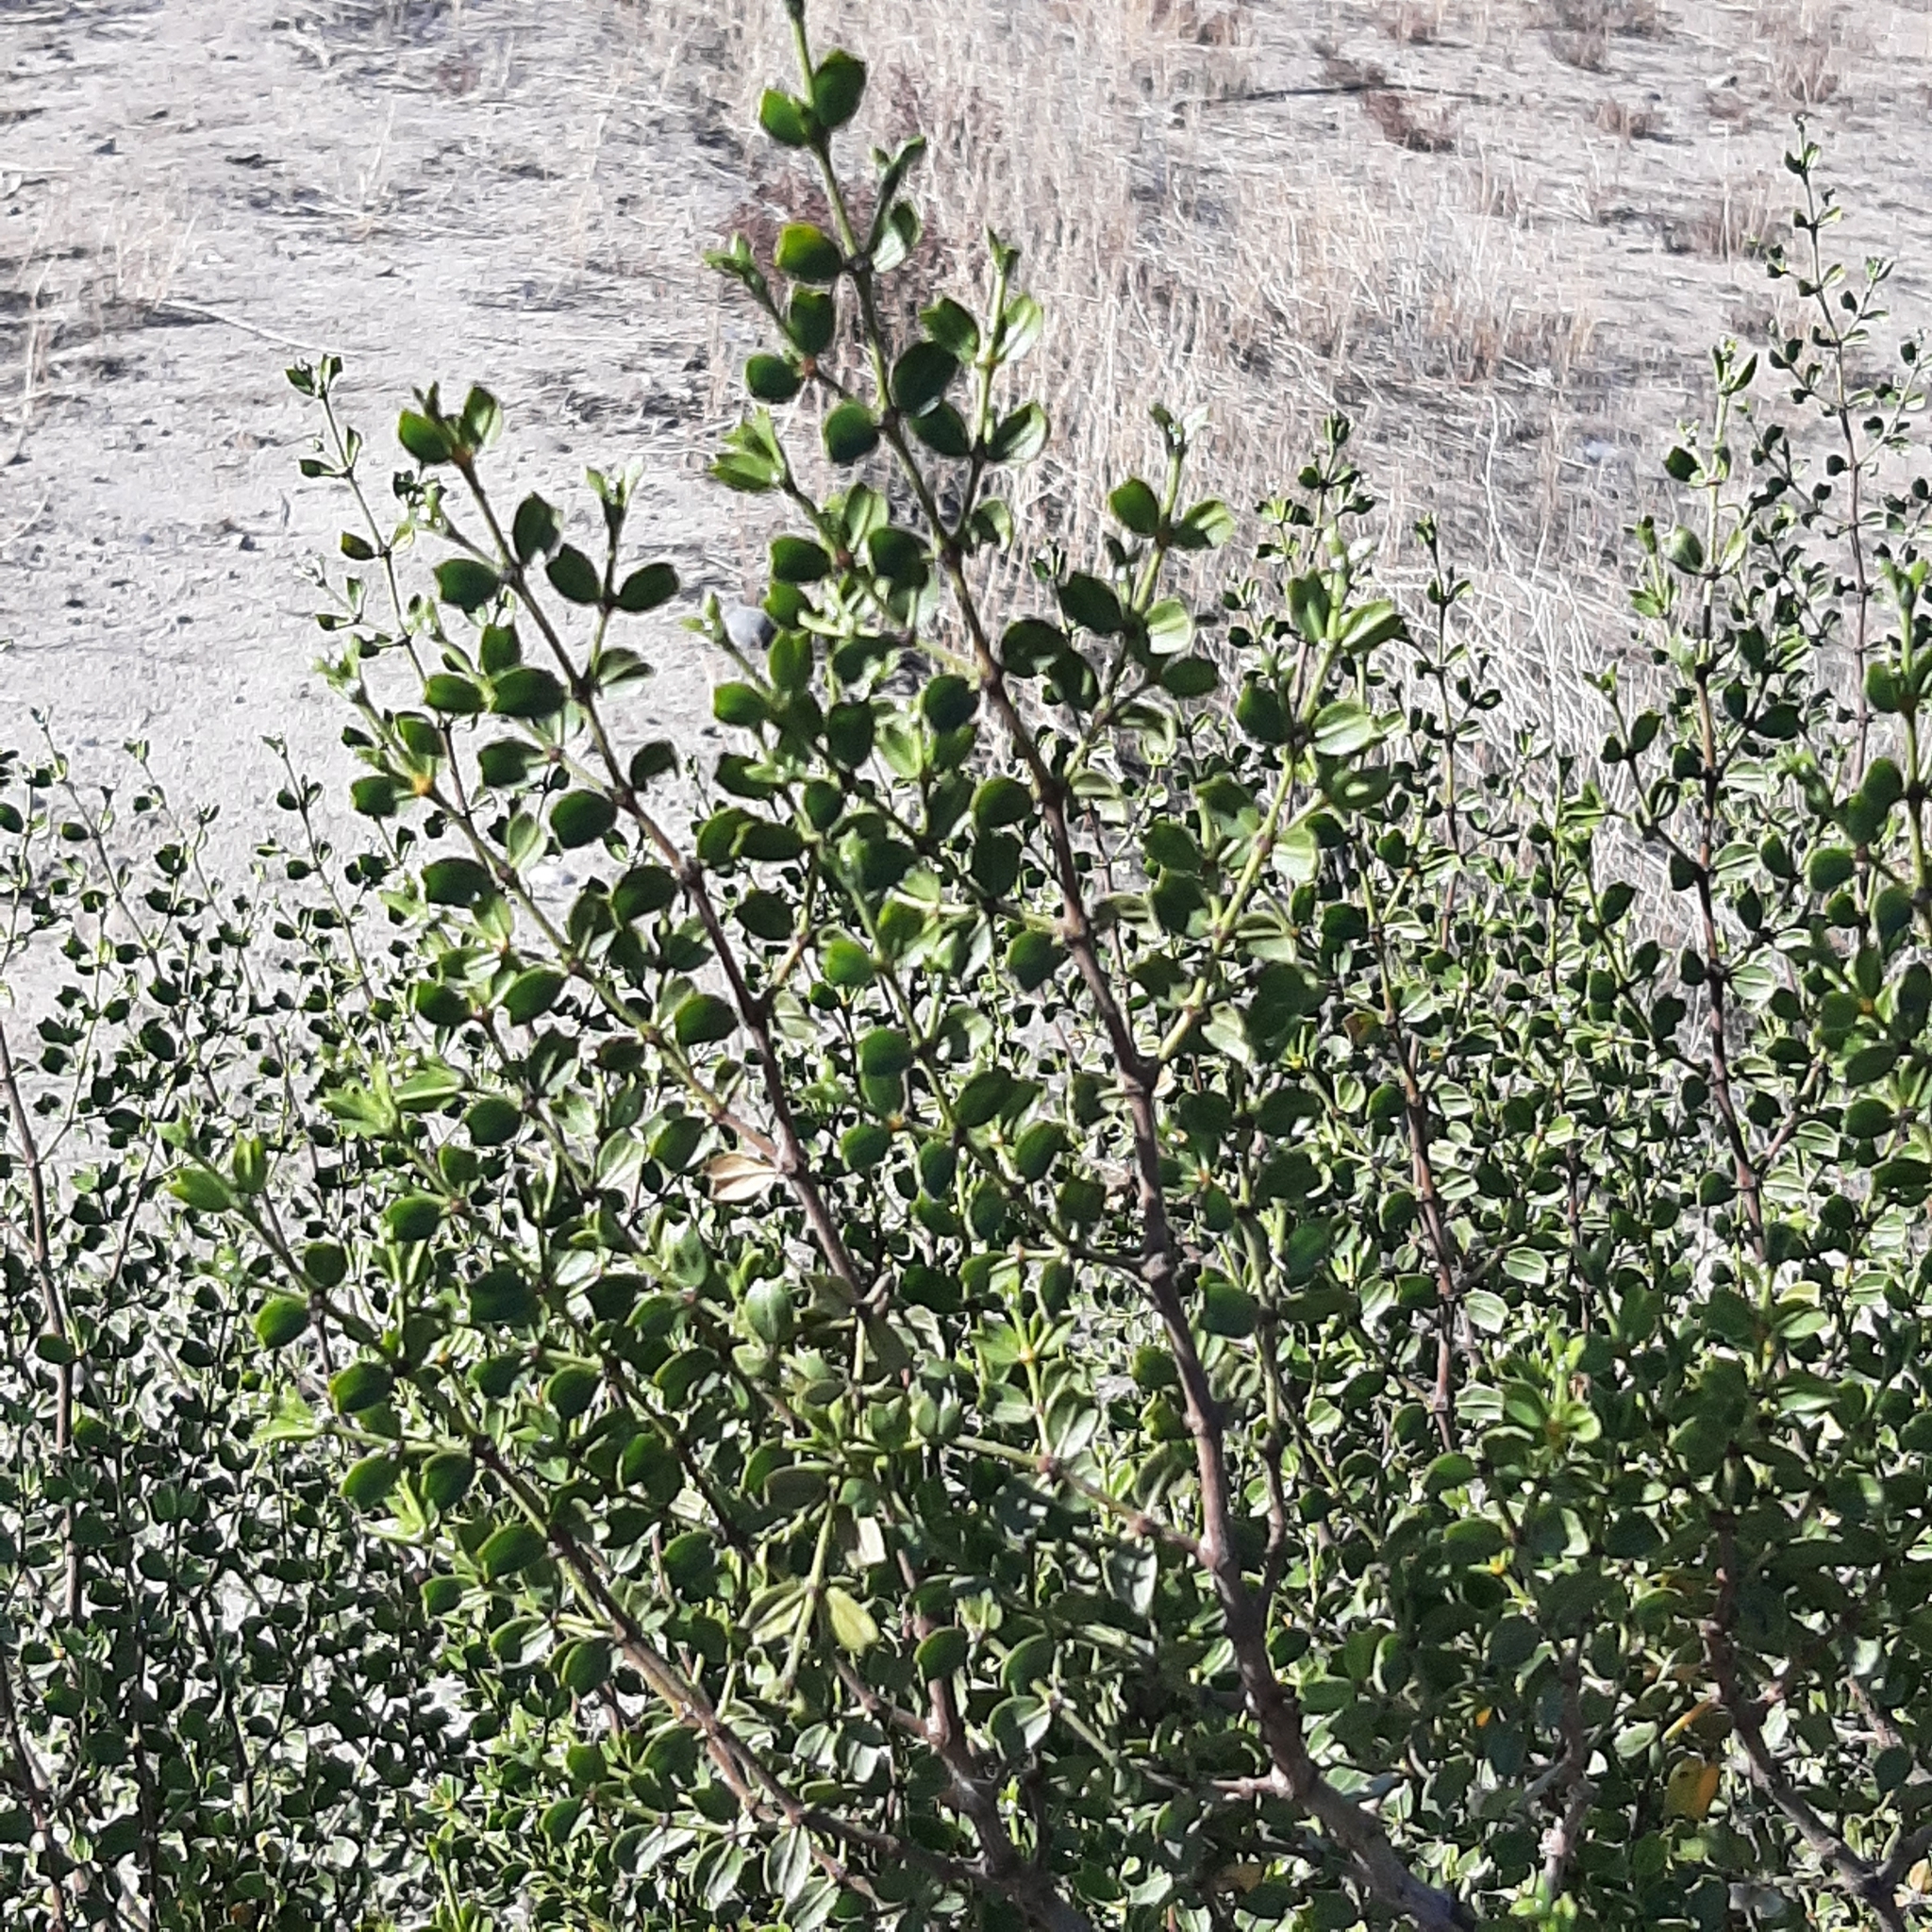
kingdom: Plantae
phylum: Tracheophyta
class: Magnoliopsida
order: Zygophyllales
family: Zygophyllaceae
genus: Larrea
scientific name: Larrea cuneifolia
